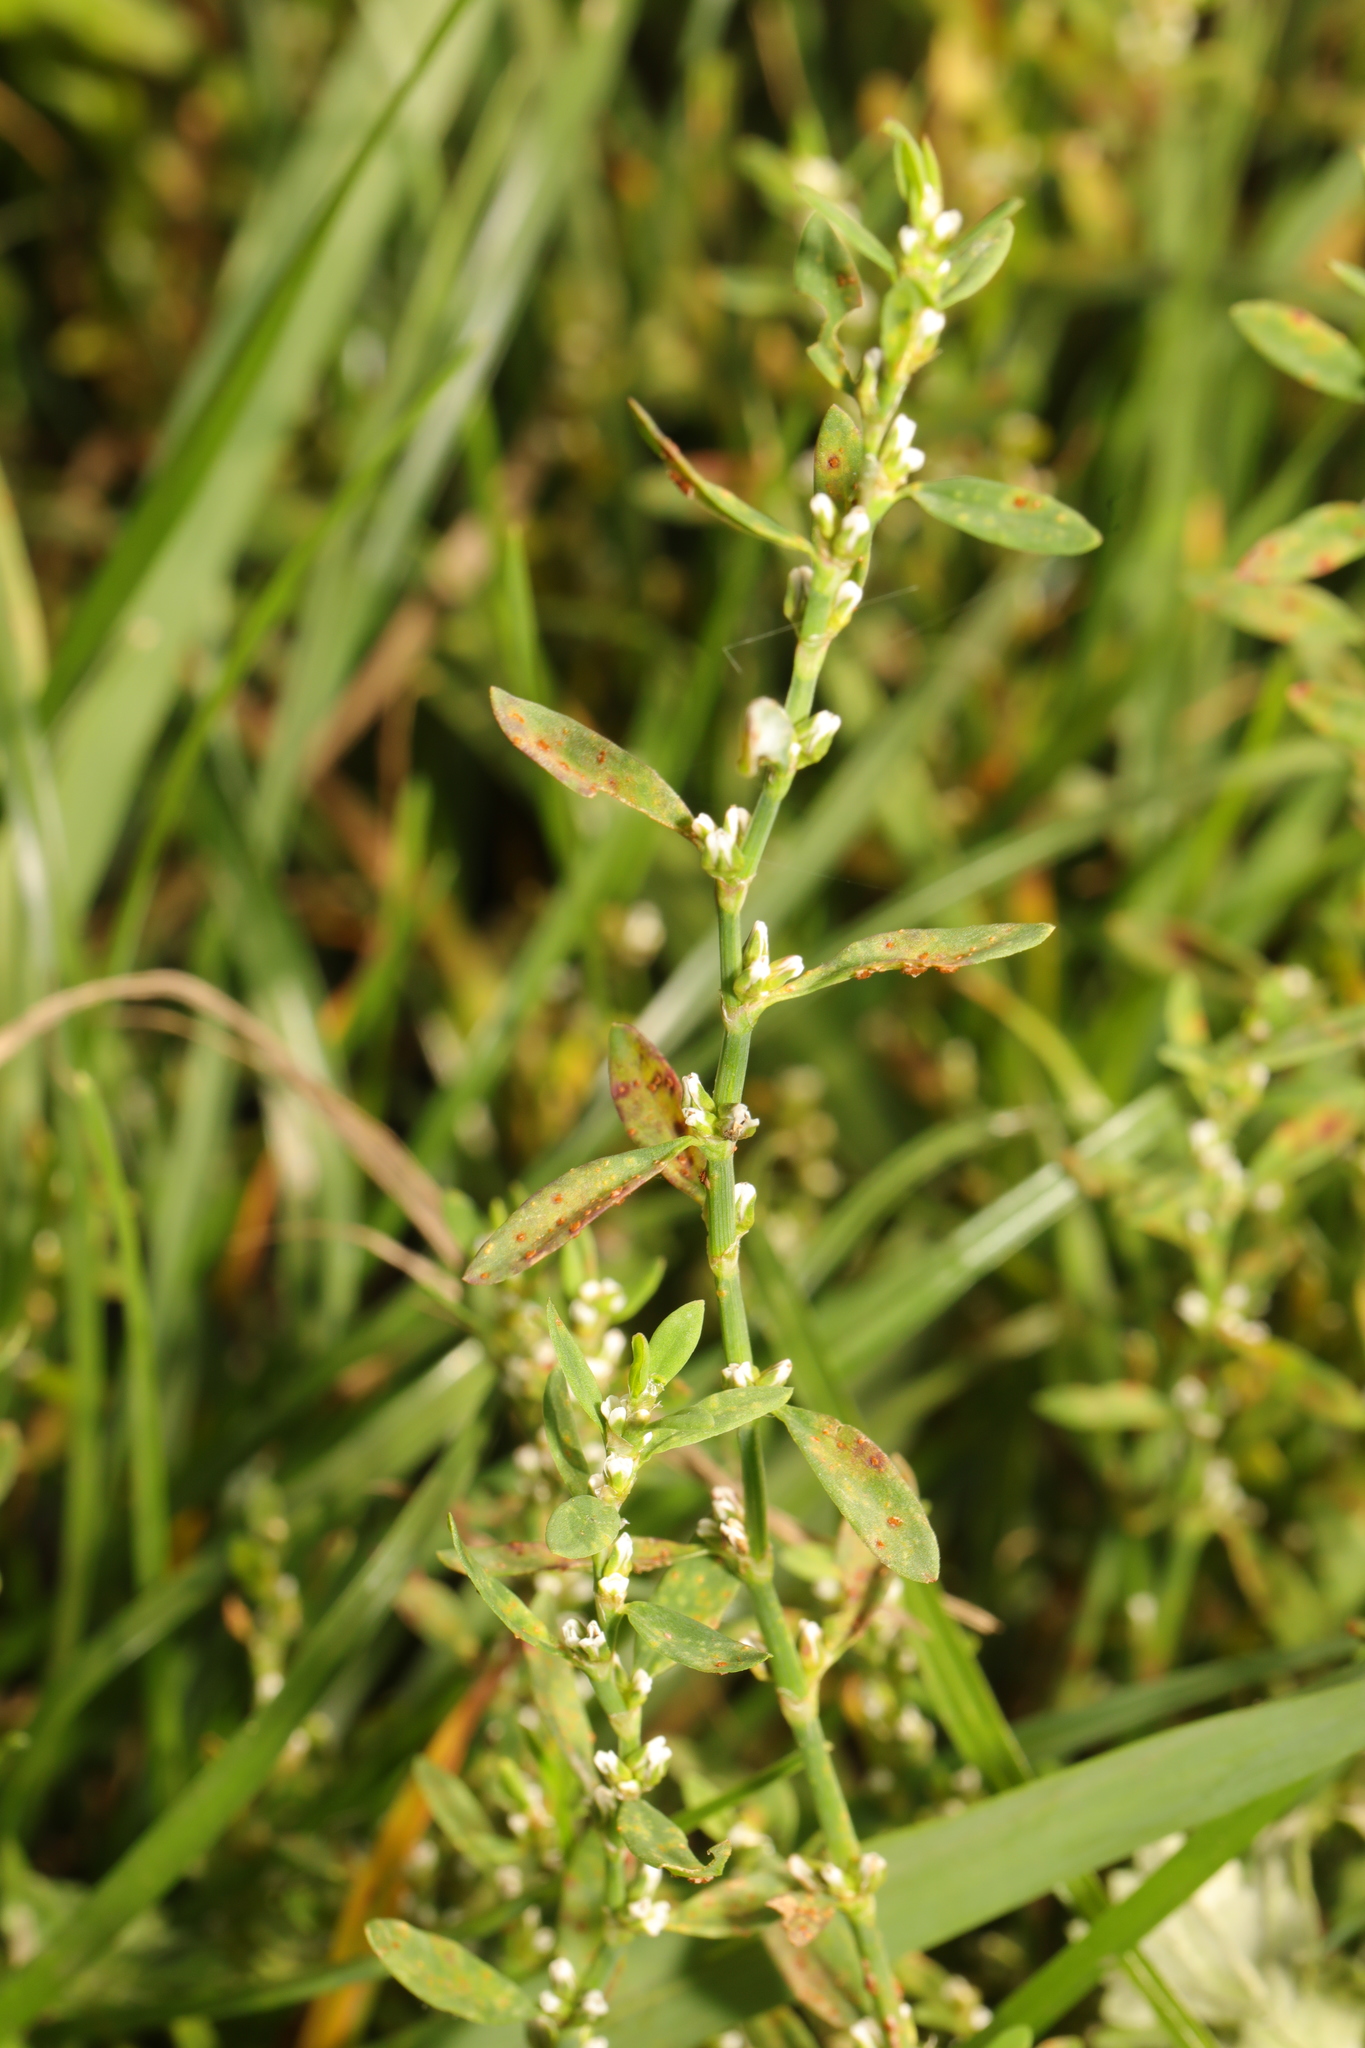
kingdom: Plantae
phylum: Tracheophyta
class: Magnoliopsida
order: Caryophyllales
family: Polygonaceae
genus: Polygonum
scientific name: Polygonum aviculare
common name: Prostrate knotweed
